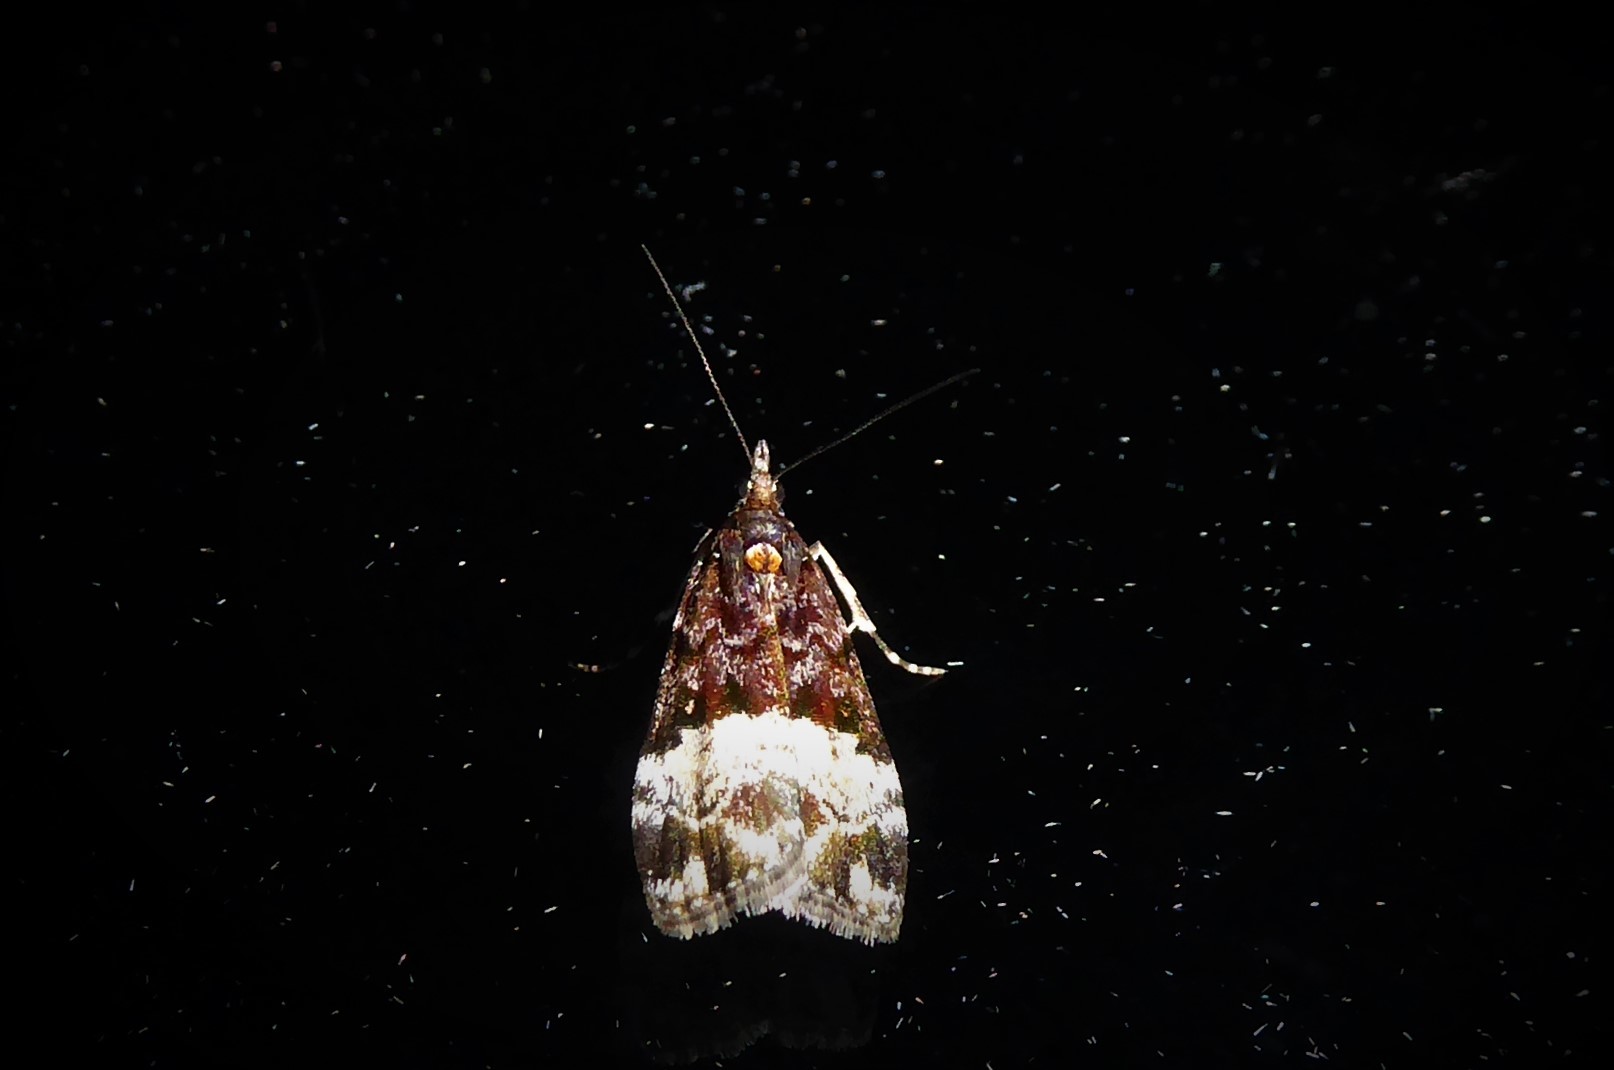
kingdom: Animalia
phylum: Arthropoda
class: Insecta
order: Lepidoptera
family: Crambidae
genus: Scoparia
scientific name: Scoparia minusculalis
